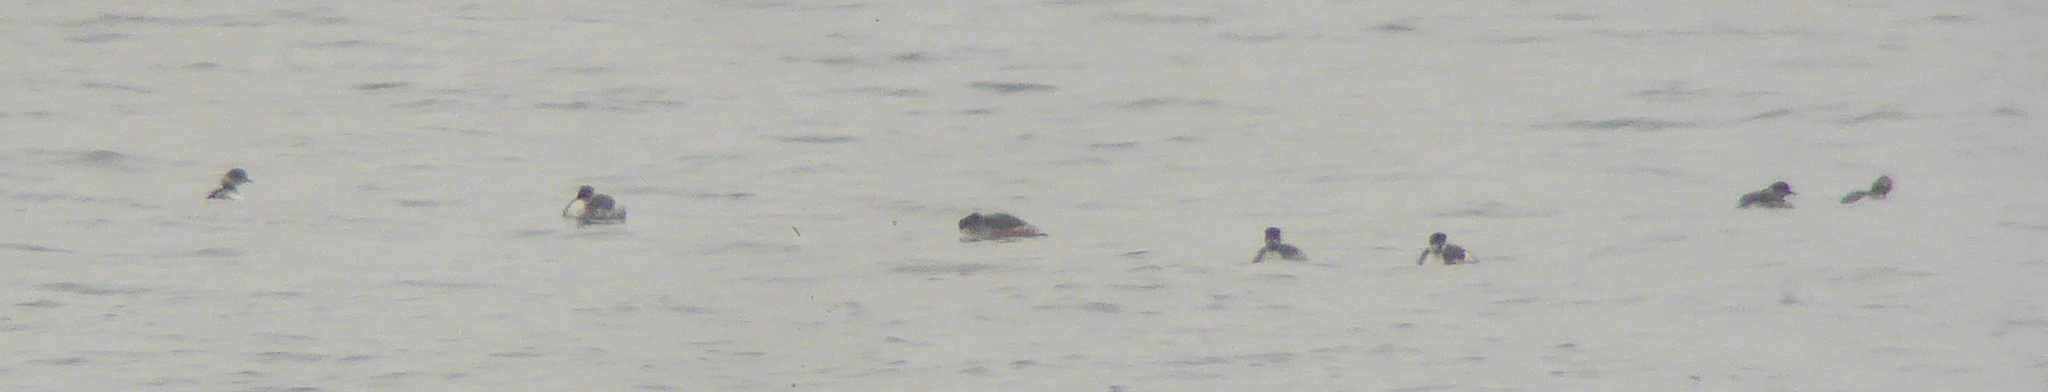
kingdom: Animalia
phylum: Chordata
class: Aves
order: Podicipediformes
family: Podicipedidae
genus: Podiceps
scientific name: Podiceps nigricollis
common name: Black-necked grebe
